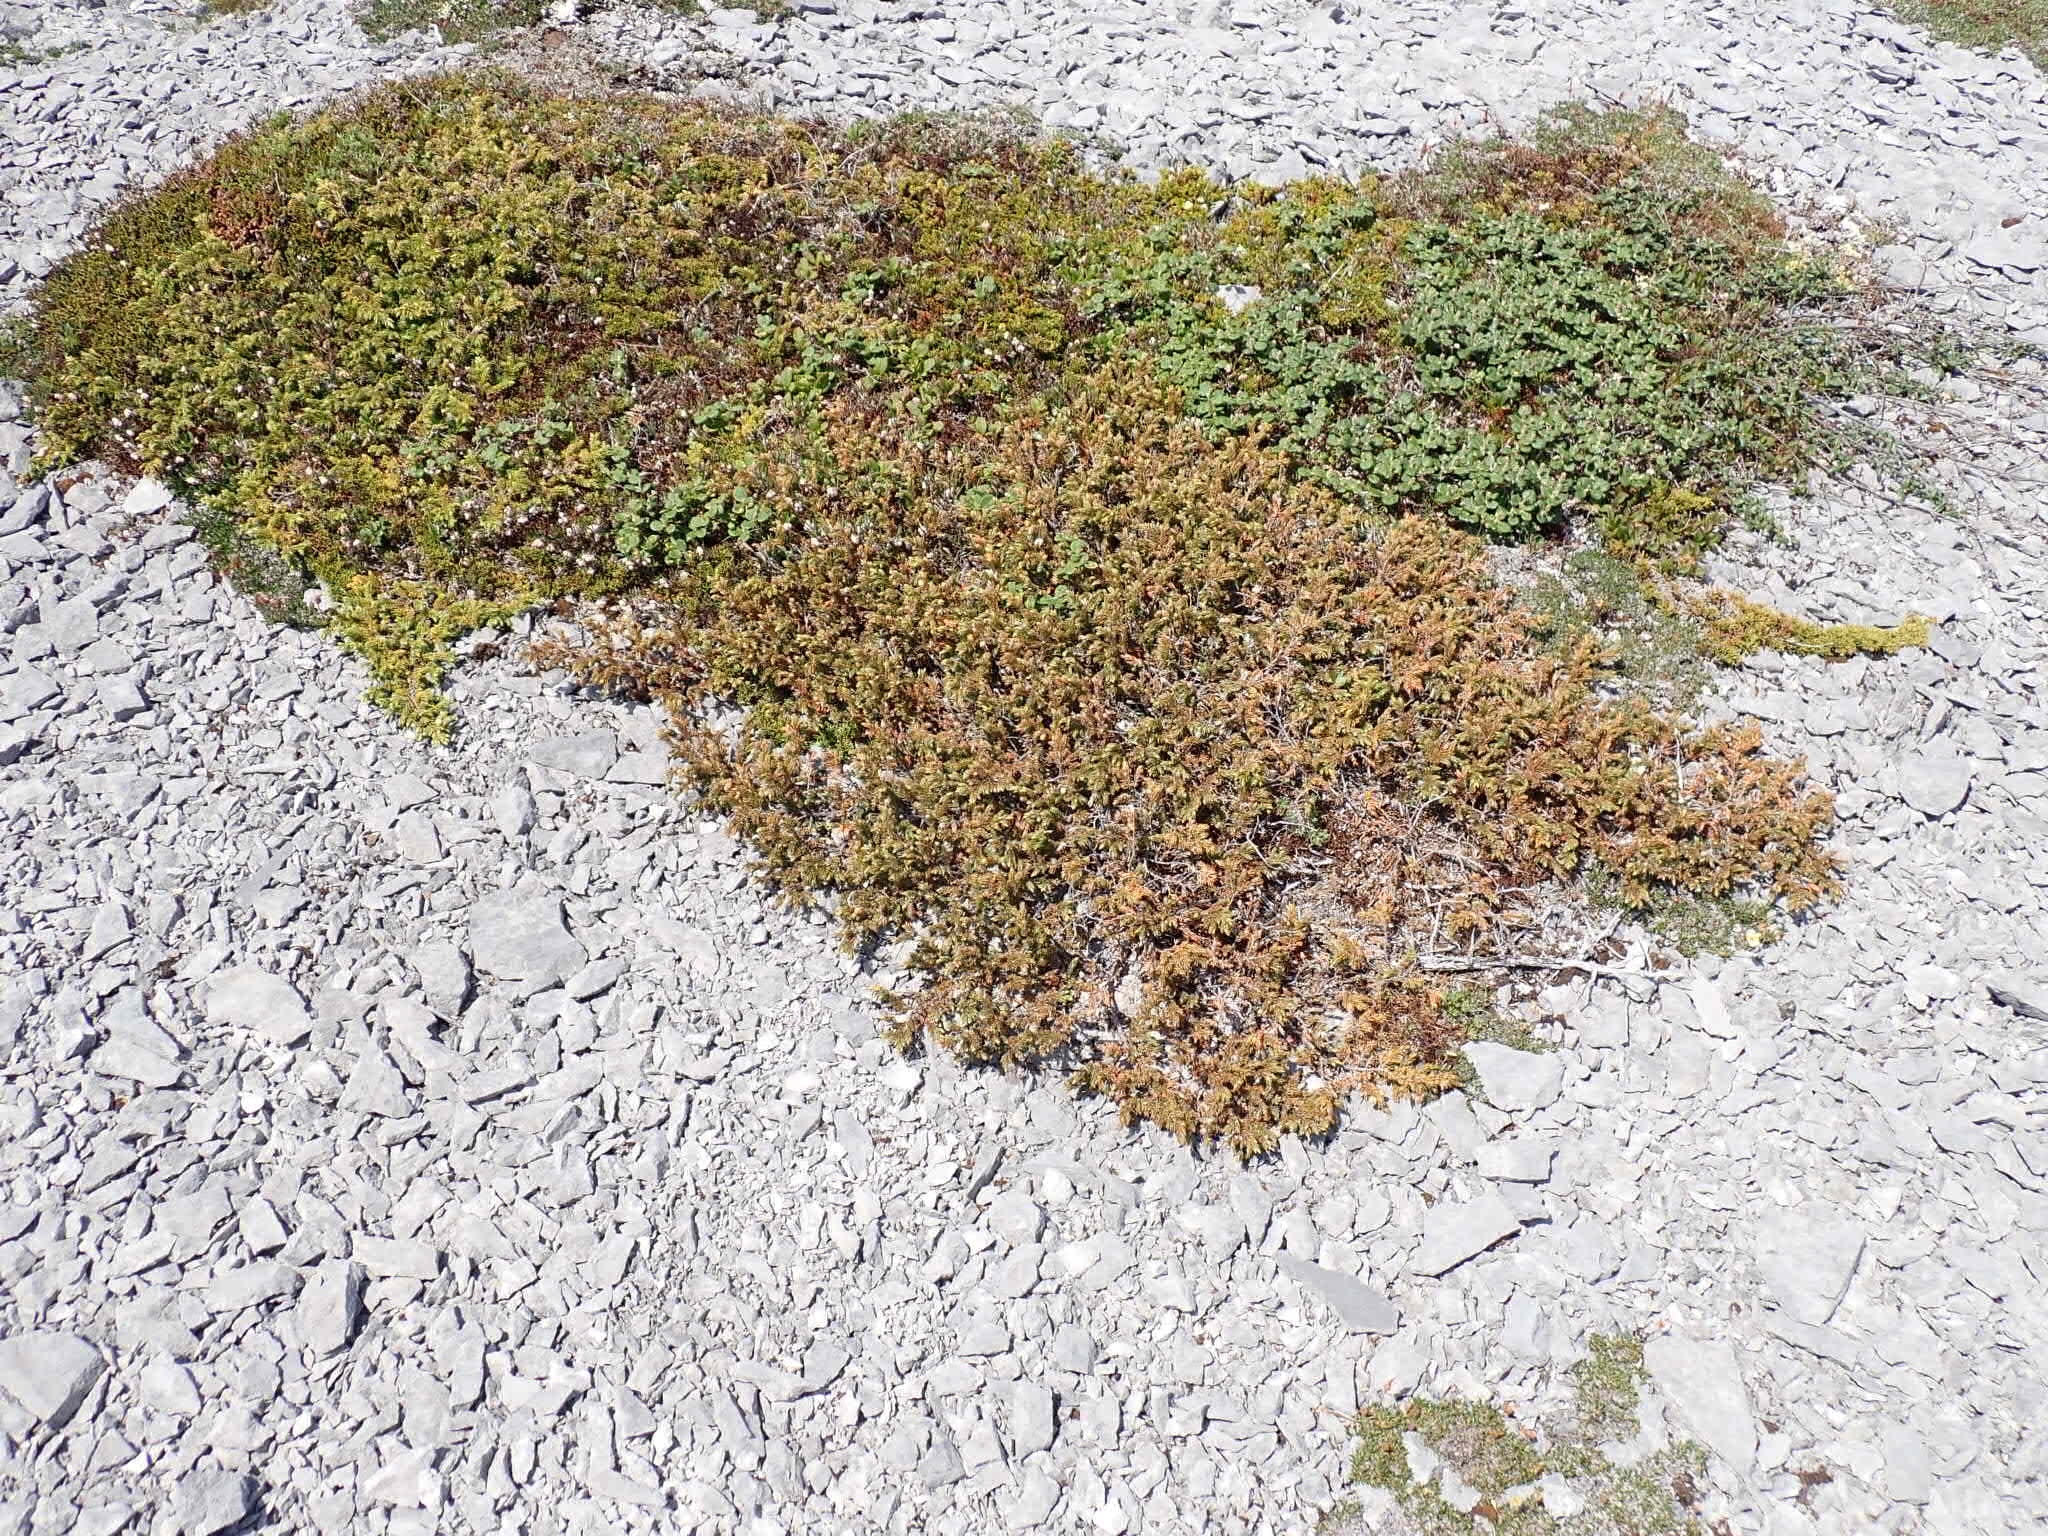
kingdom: Plantae
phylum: Tracheophyta
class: Pinopsida
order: Pinales
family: Cupressaceae
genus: Juniperus
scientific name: Juniperus horizontalis
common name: Creeping juniper
